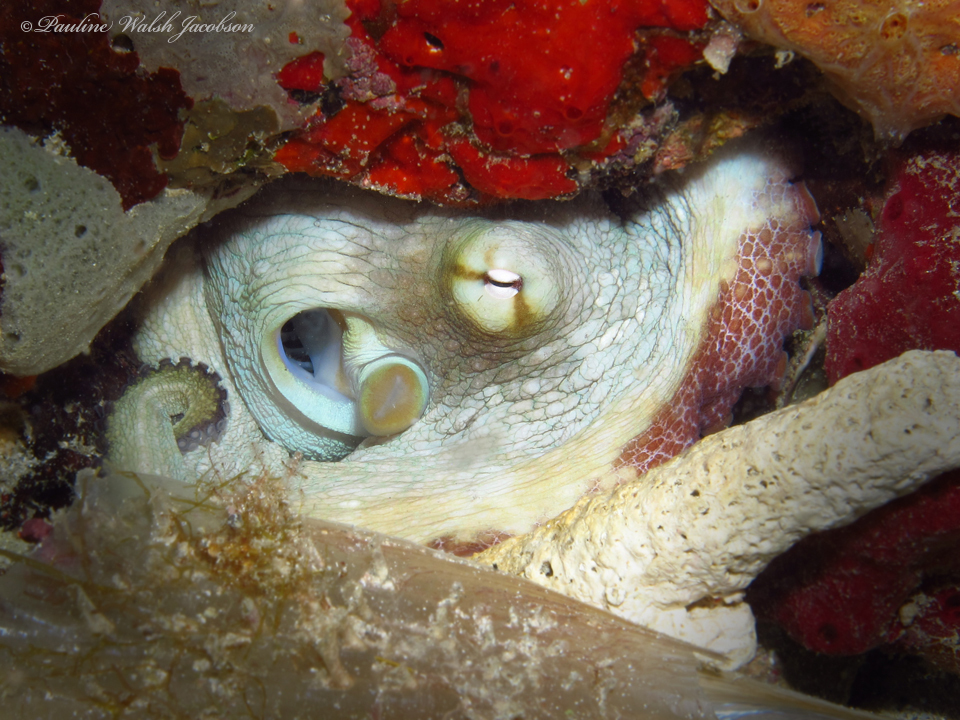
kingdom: Animalia
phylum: Mollusca
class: Cephalopoda
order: Octopoda
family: Octopodidae
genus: Octopus
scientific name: Octopus insularis
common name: Brazil reef octopus
